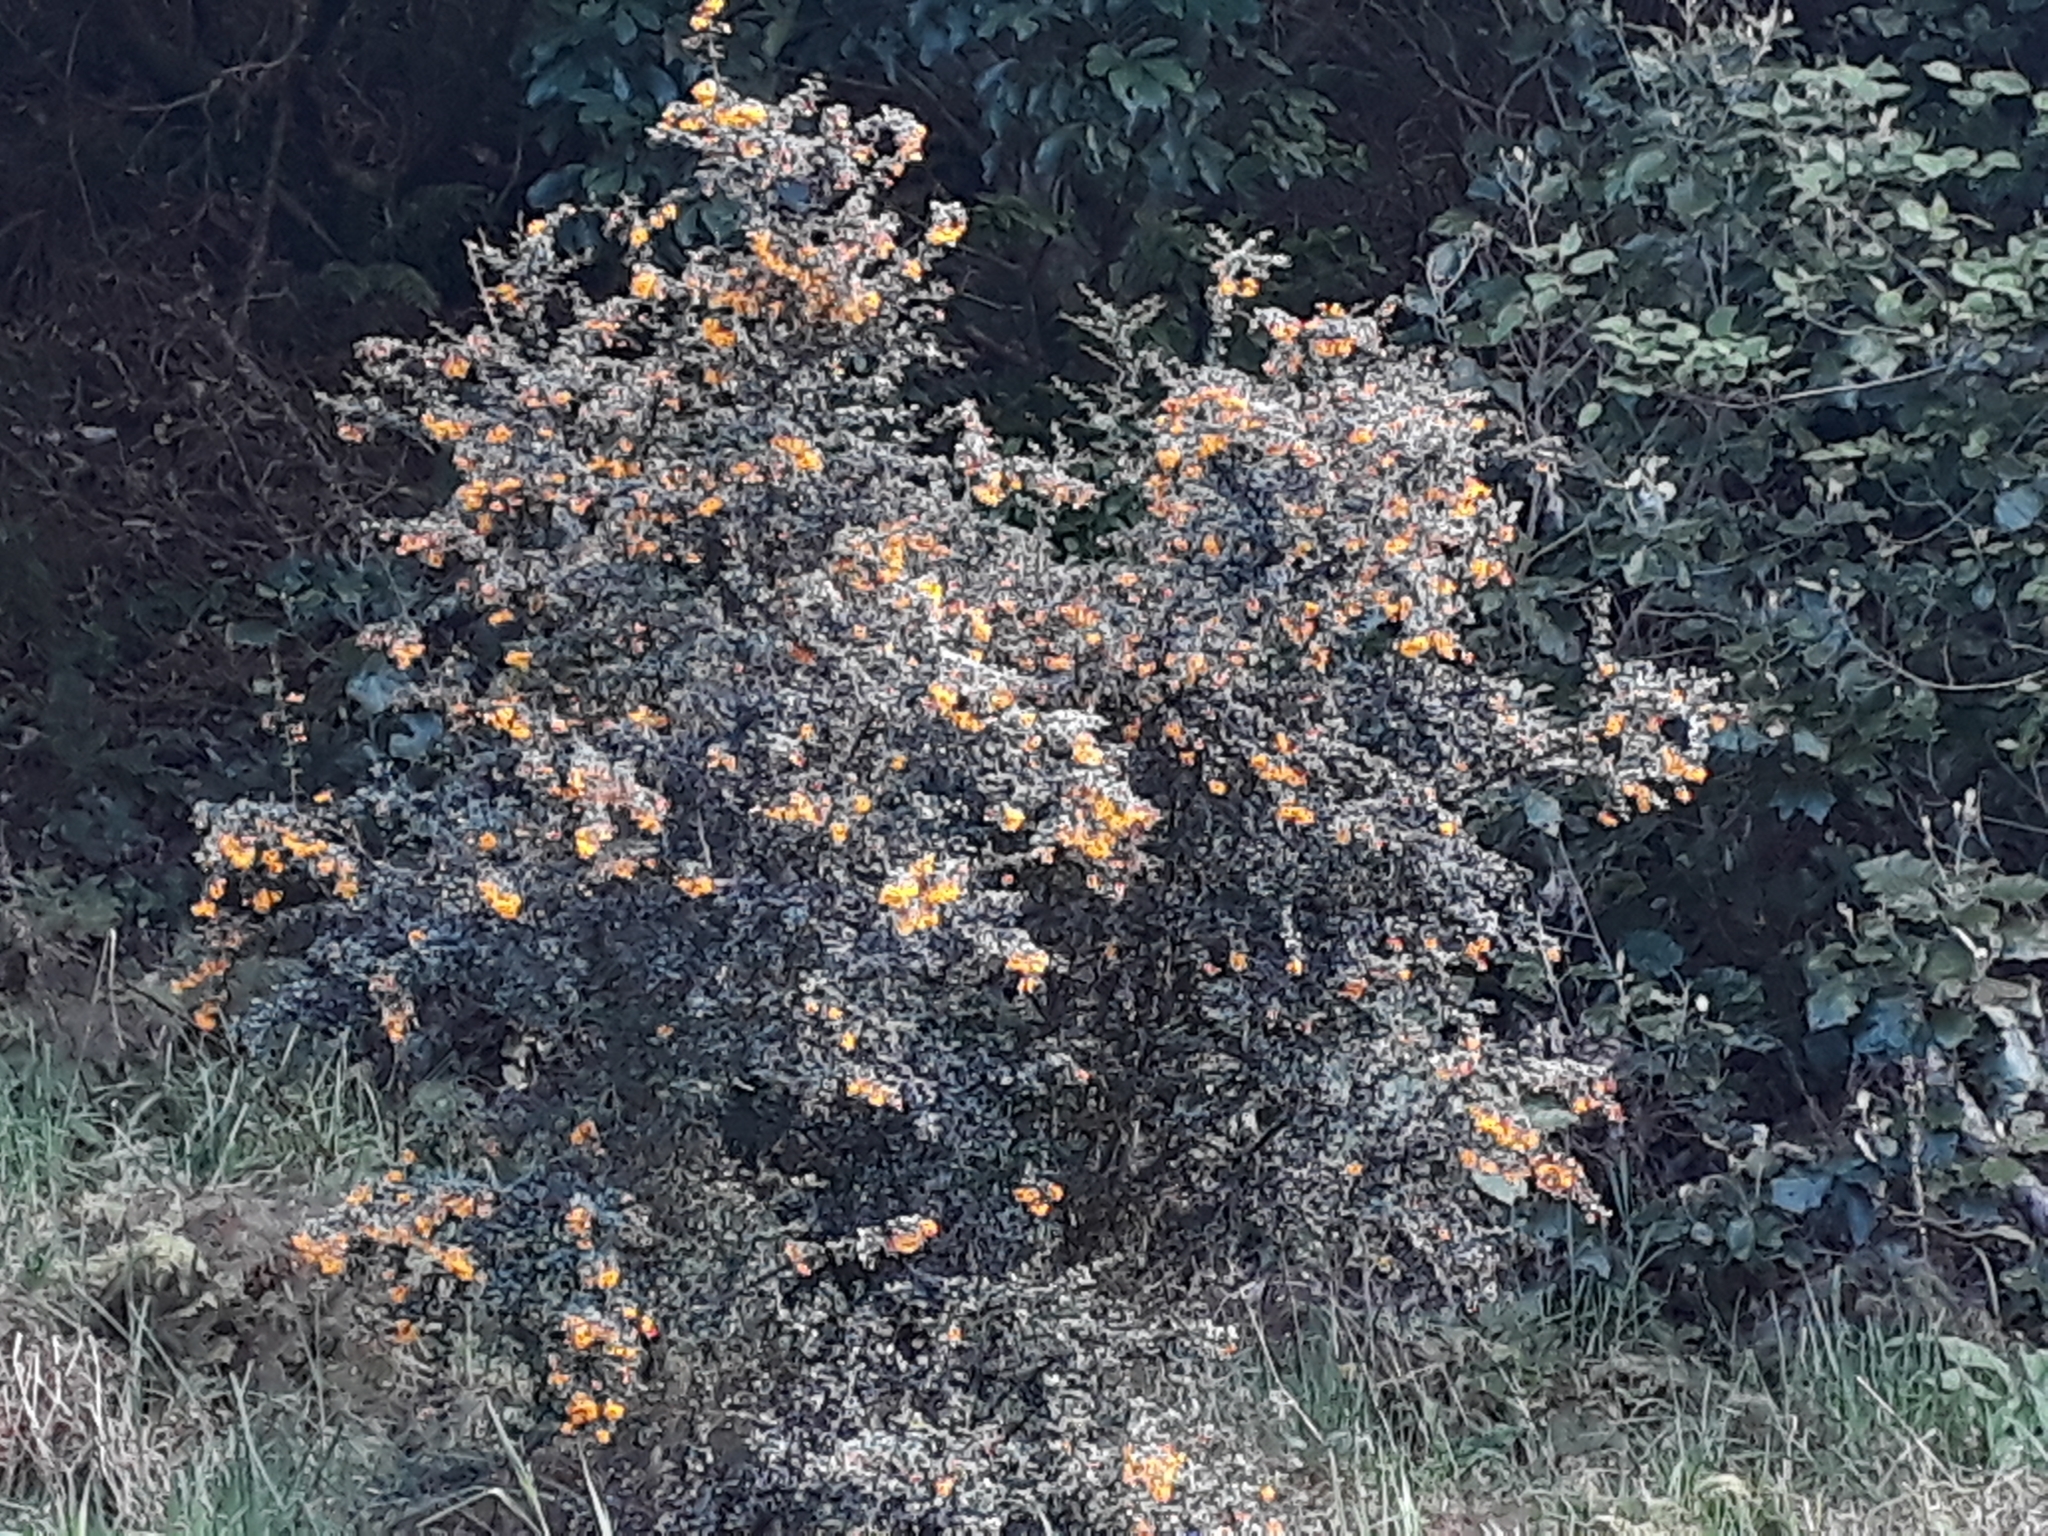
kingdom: Plantae
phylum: Tracheophyta
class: Magnoliopsida
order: Ranunculales
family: Berberidaceae
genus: Berberis
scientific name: Berberis darwinii
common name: Darwin's barberry
